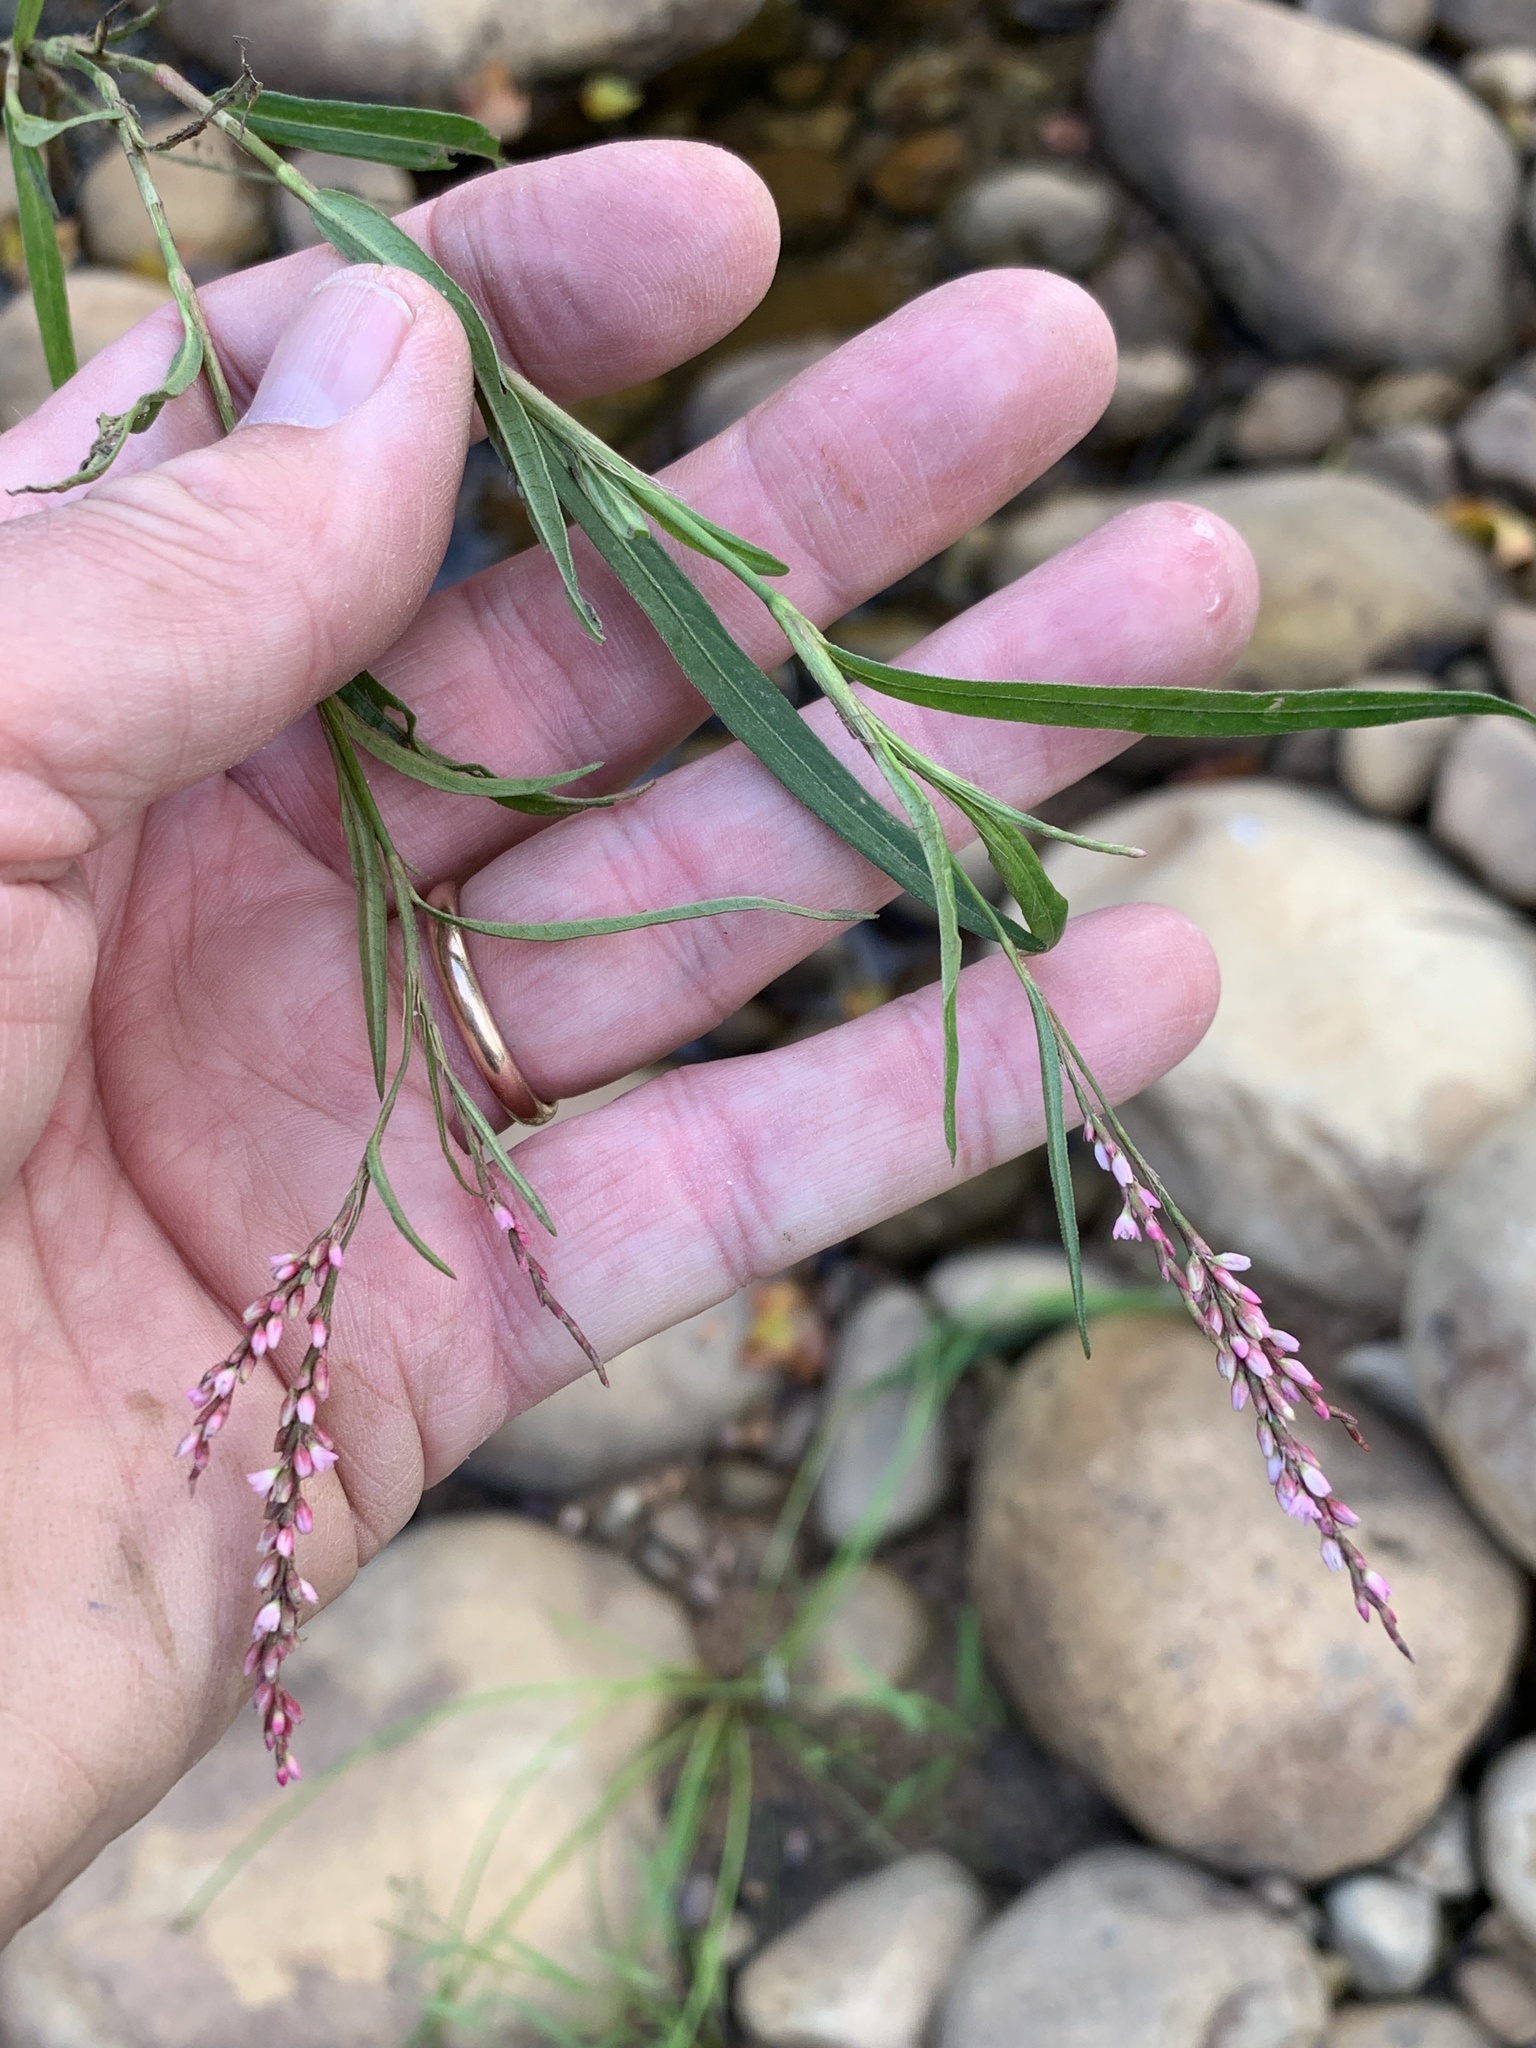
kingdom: Plantae
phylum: Tracheophyta
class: Magnoliopsida
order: Caryophyllales
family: Polygonaceae
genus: Persicaria
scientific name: Persicaria decipiens
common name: Willow-weed
